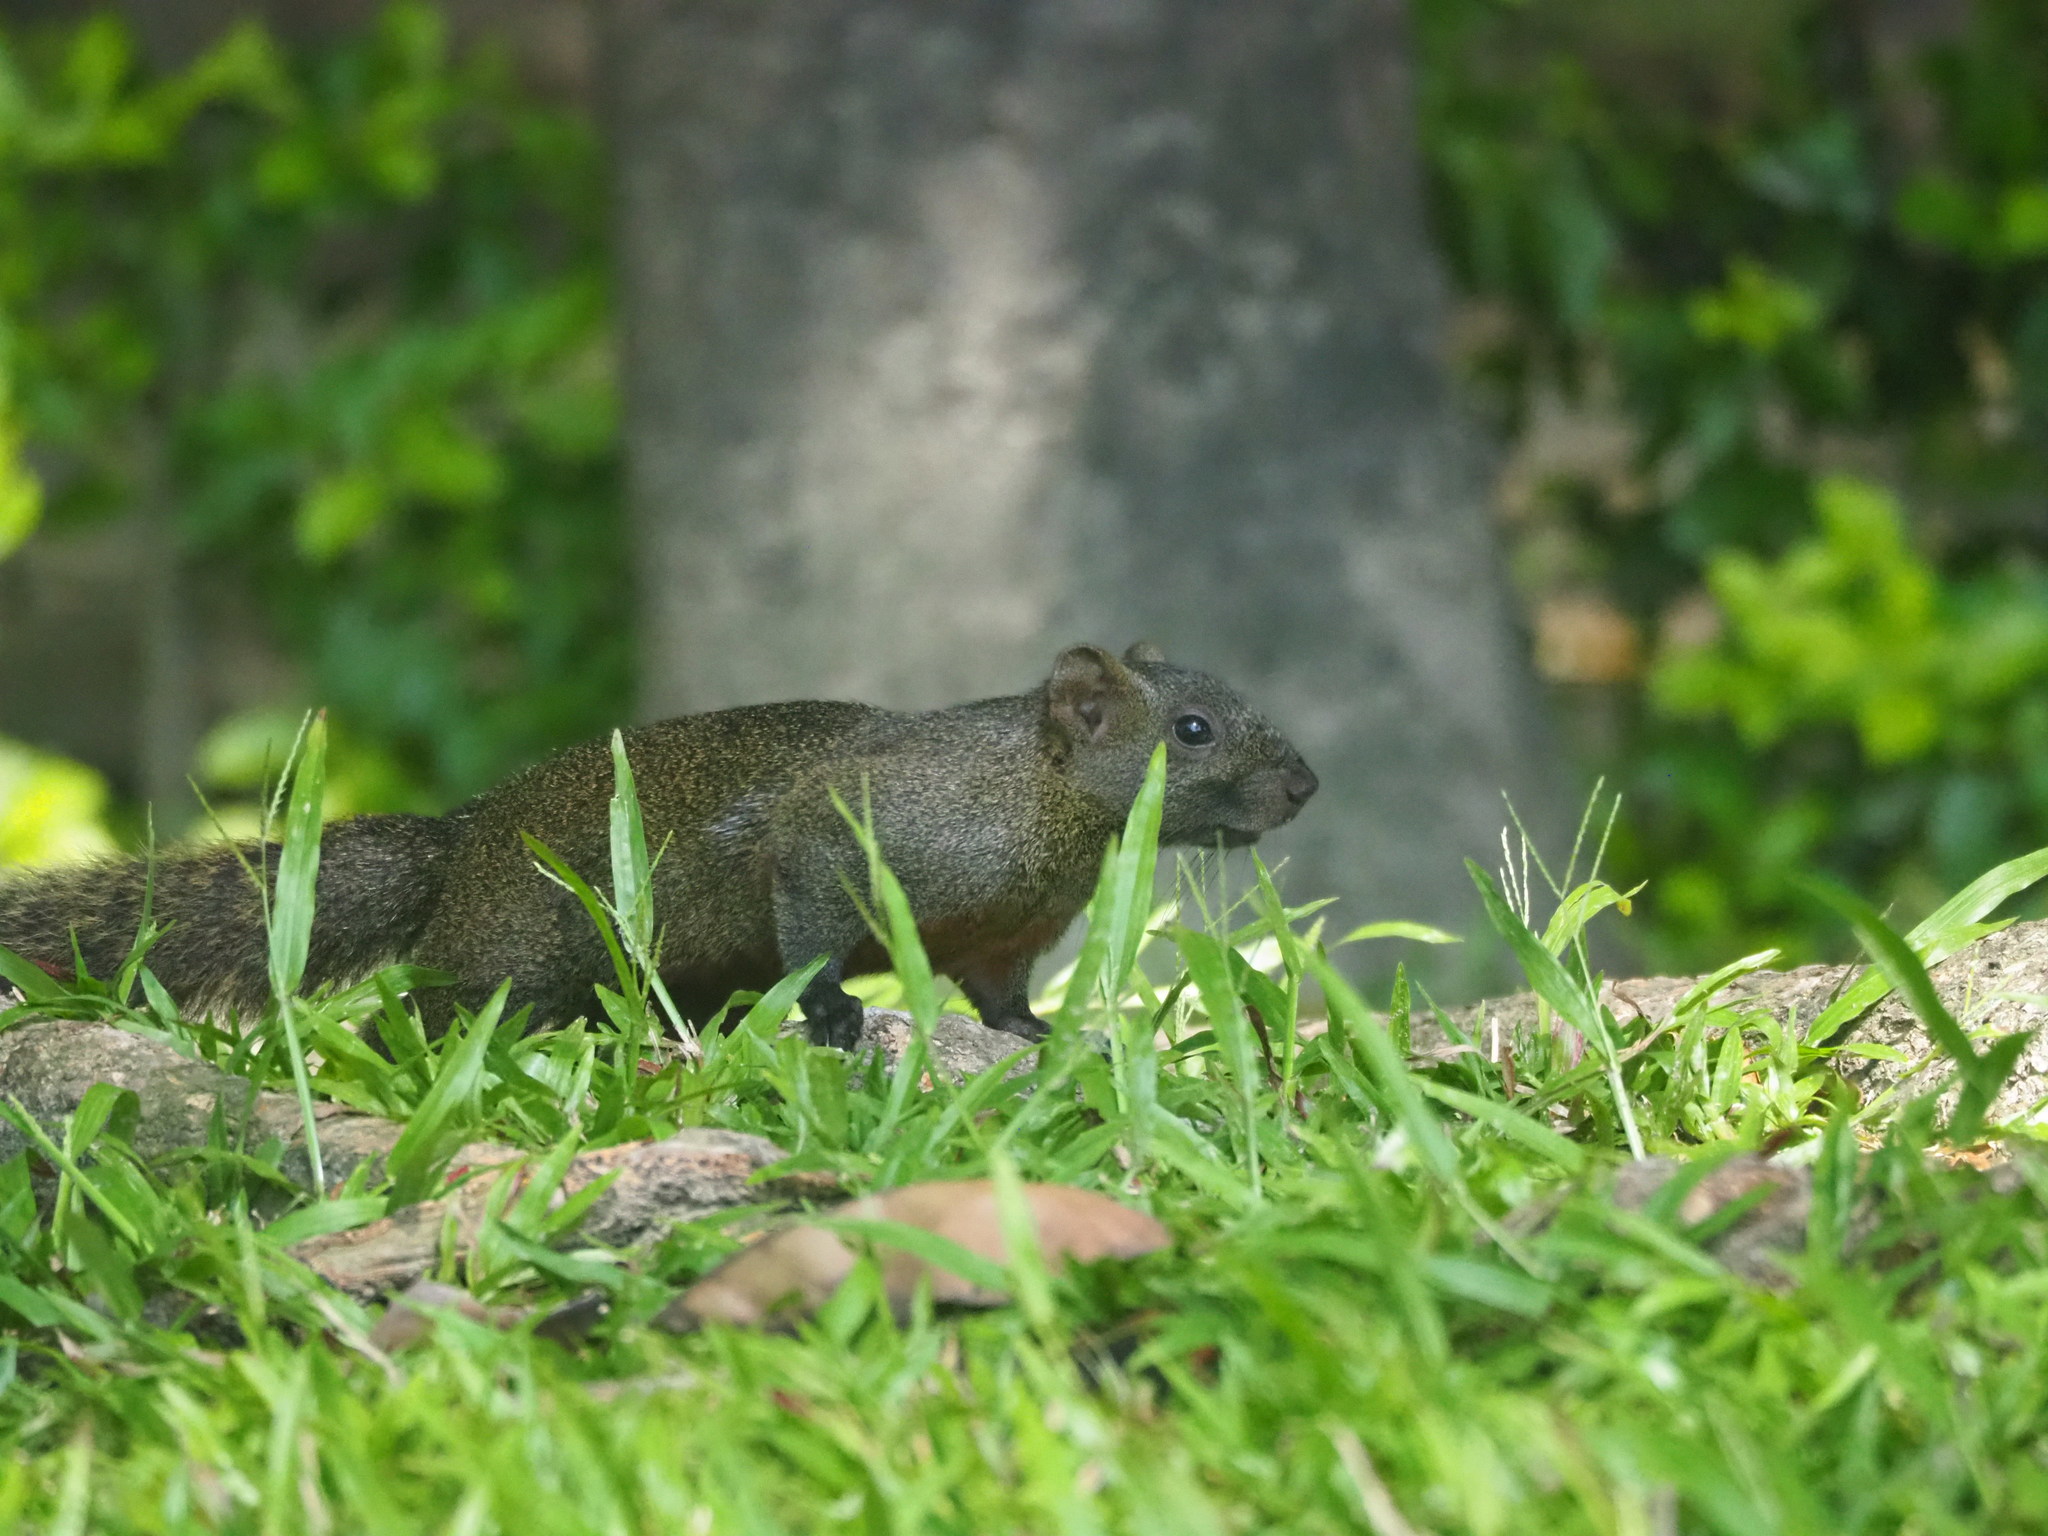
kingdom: Animalia
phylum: Chordata
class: Mammalia
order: Rodentia
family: Sciuridae
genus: Callosciurus
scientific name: Callosciurus erythraeus
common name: Pallas's squirrel
